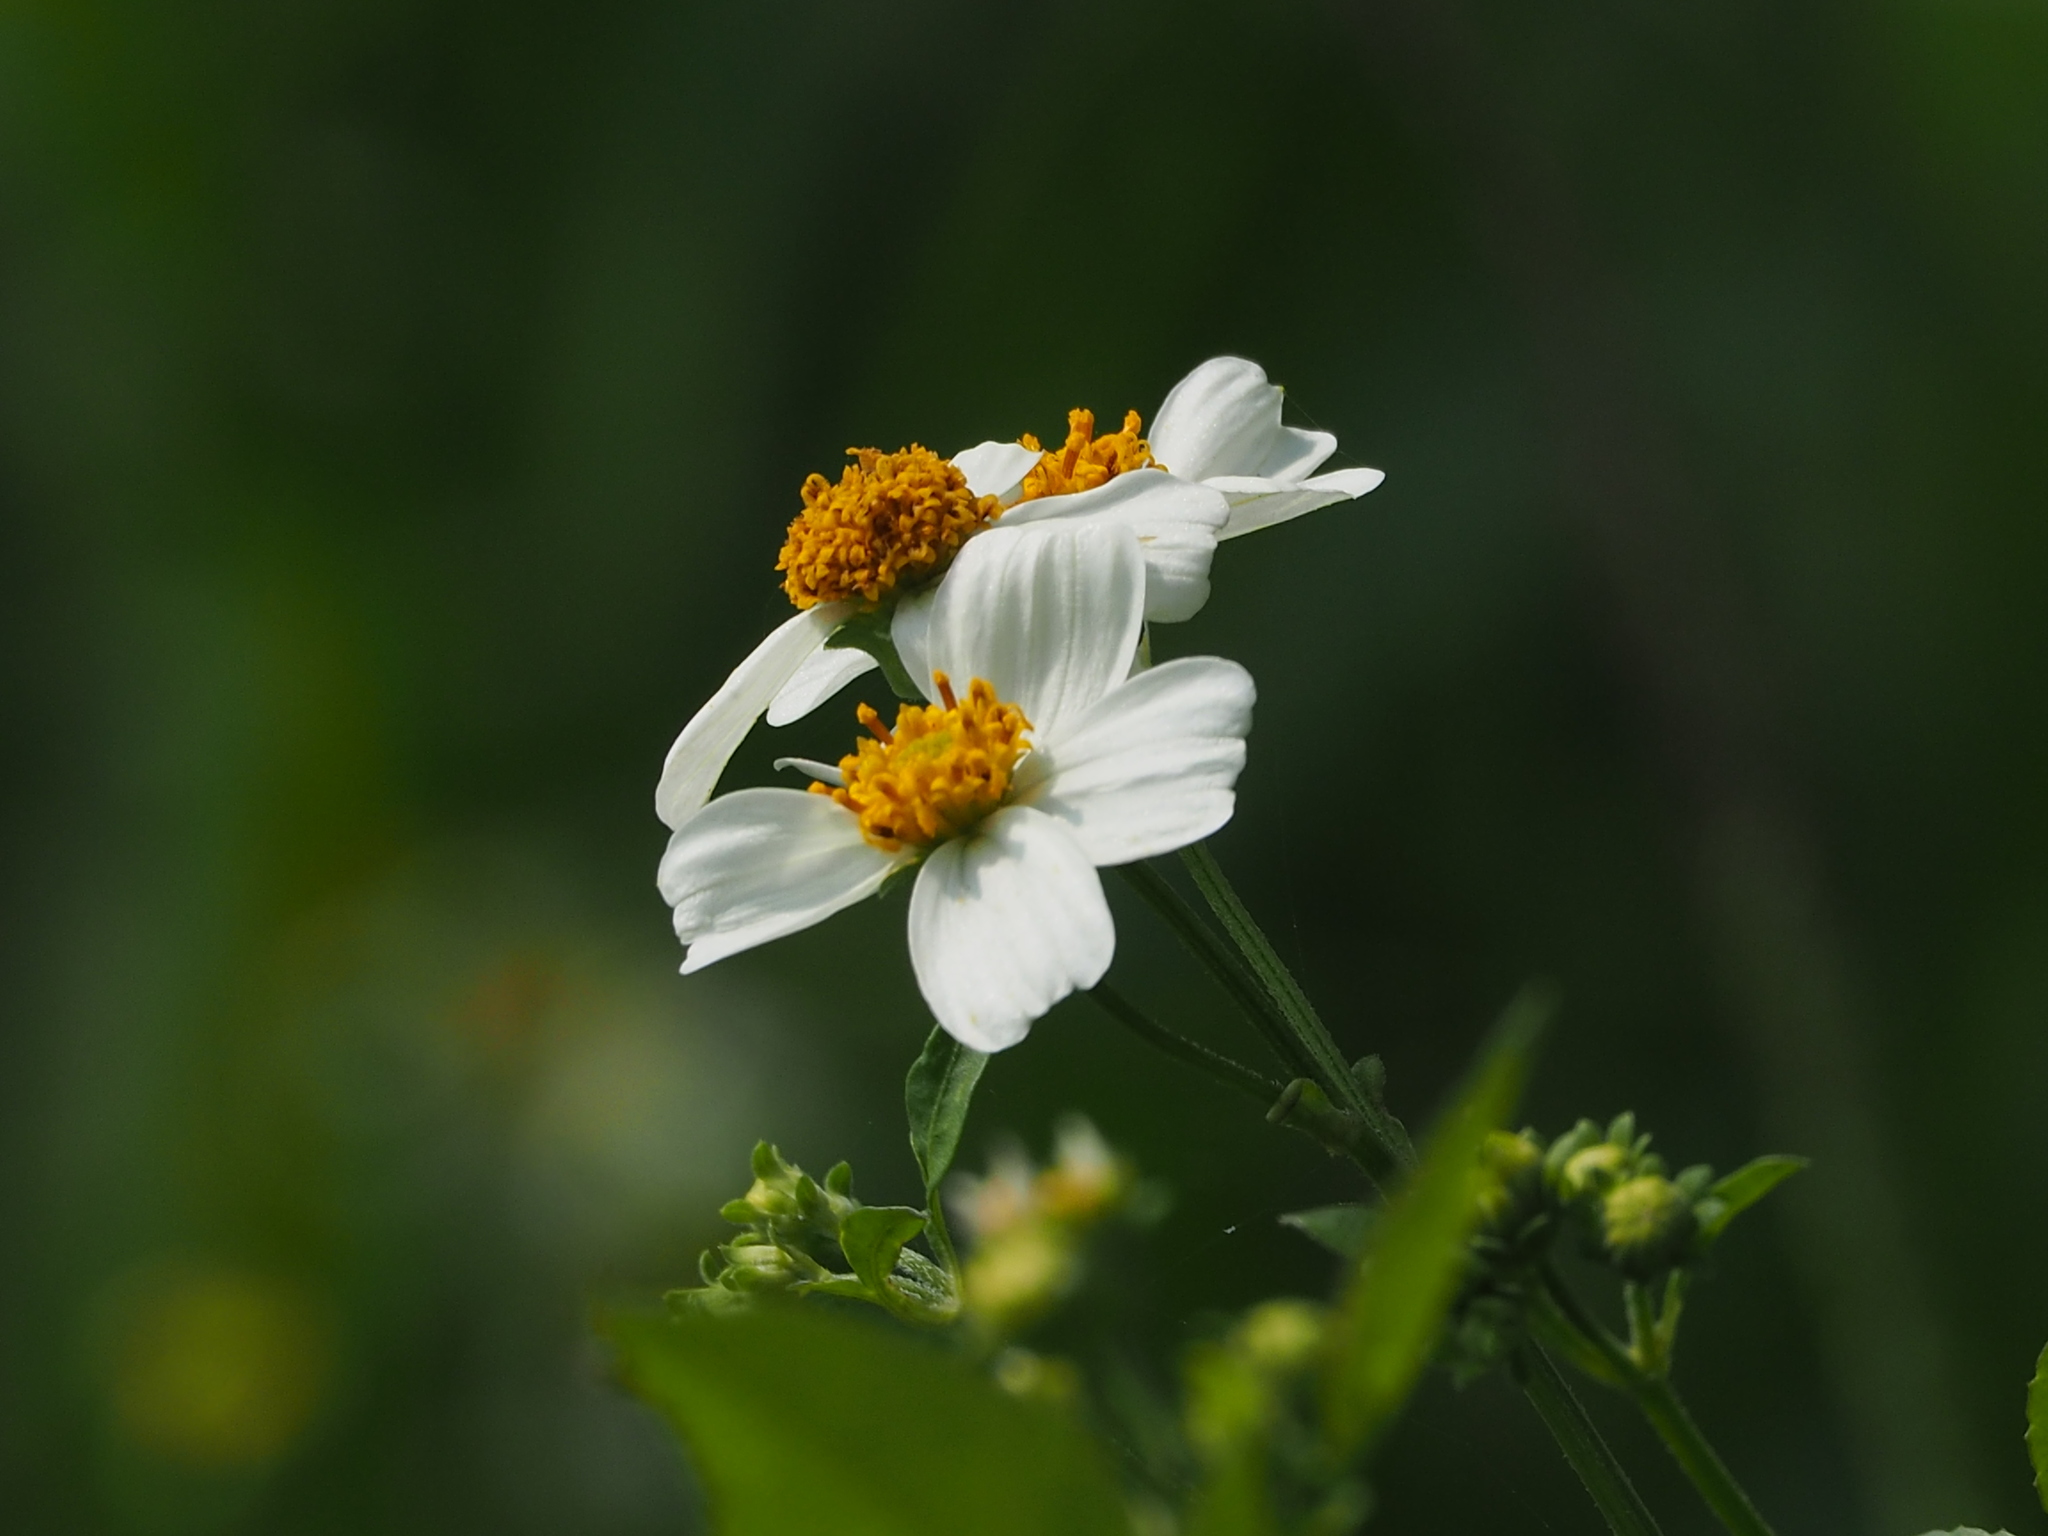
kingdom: Plantae
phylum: Tracheophyta
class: Magnoliopsida
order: Asterales
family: Asteraceae
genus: Bidens
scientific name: Bidens alba
